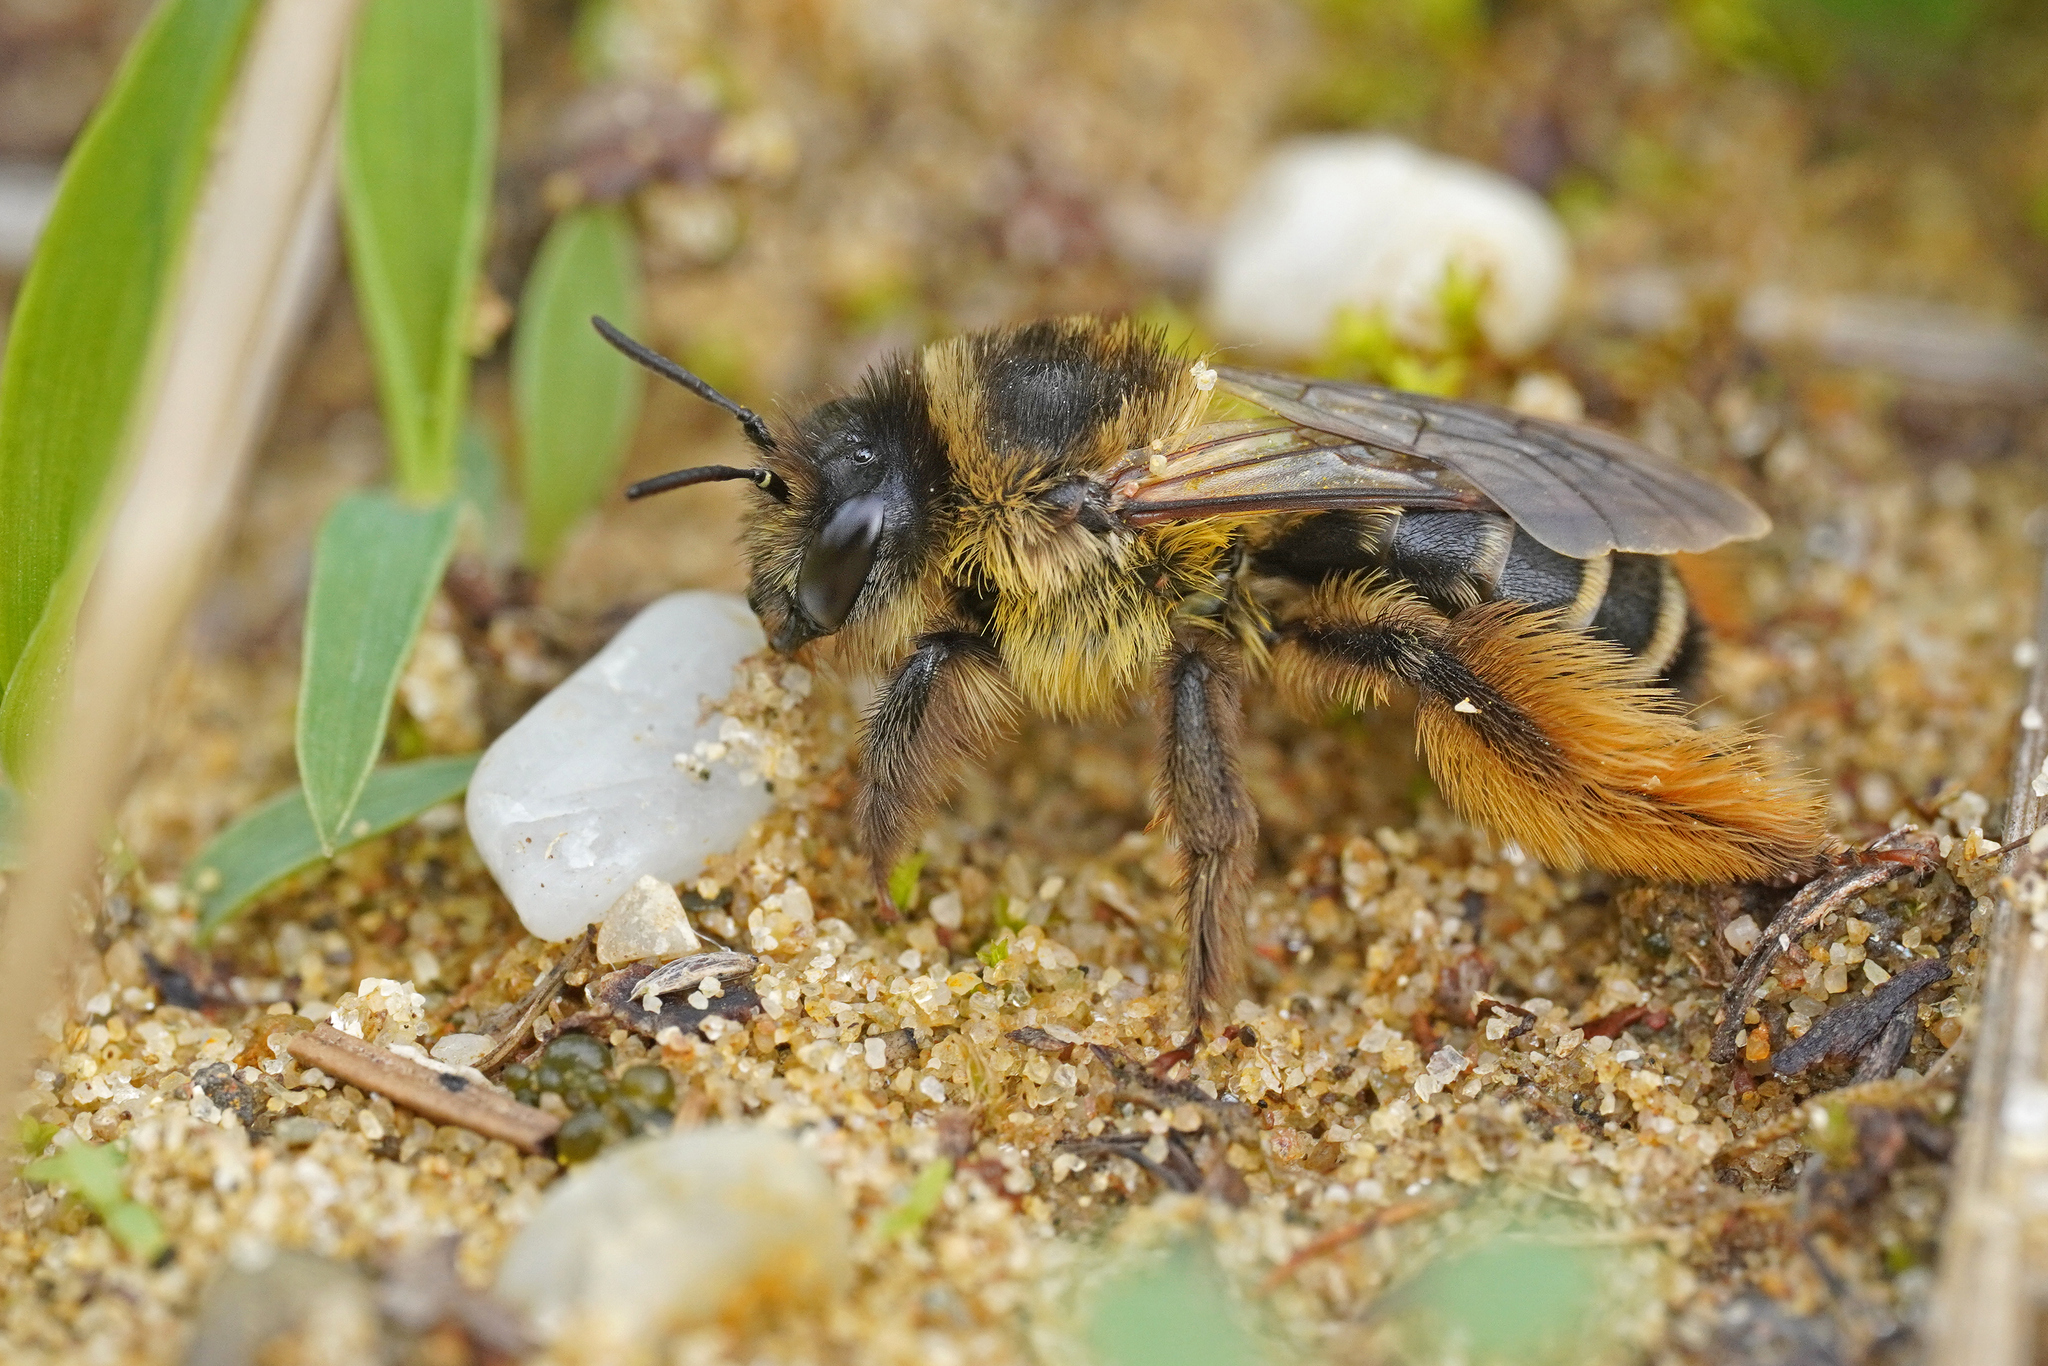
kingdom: Animalia
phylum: Arthropoda
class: Insecta
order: Hymenoptera
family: Melittidae
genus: Dasypoda
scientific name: Dasypoda hirtipes
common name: Pantaloon bee
